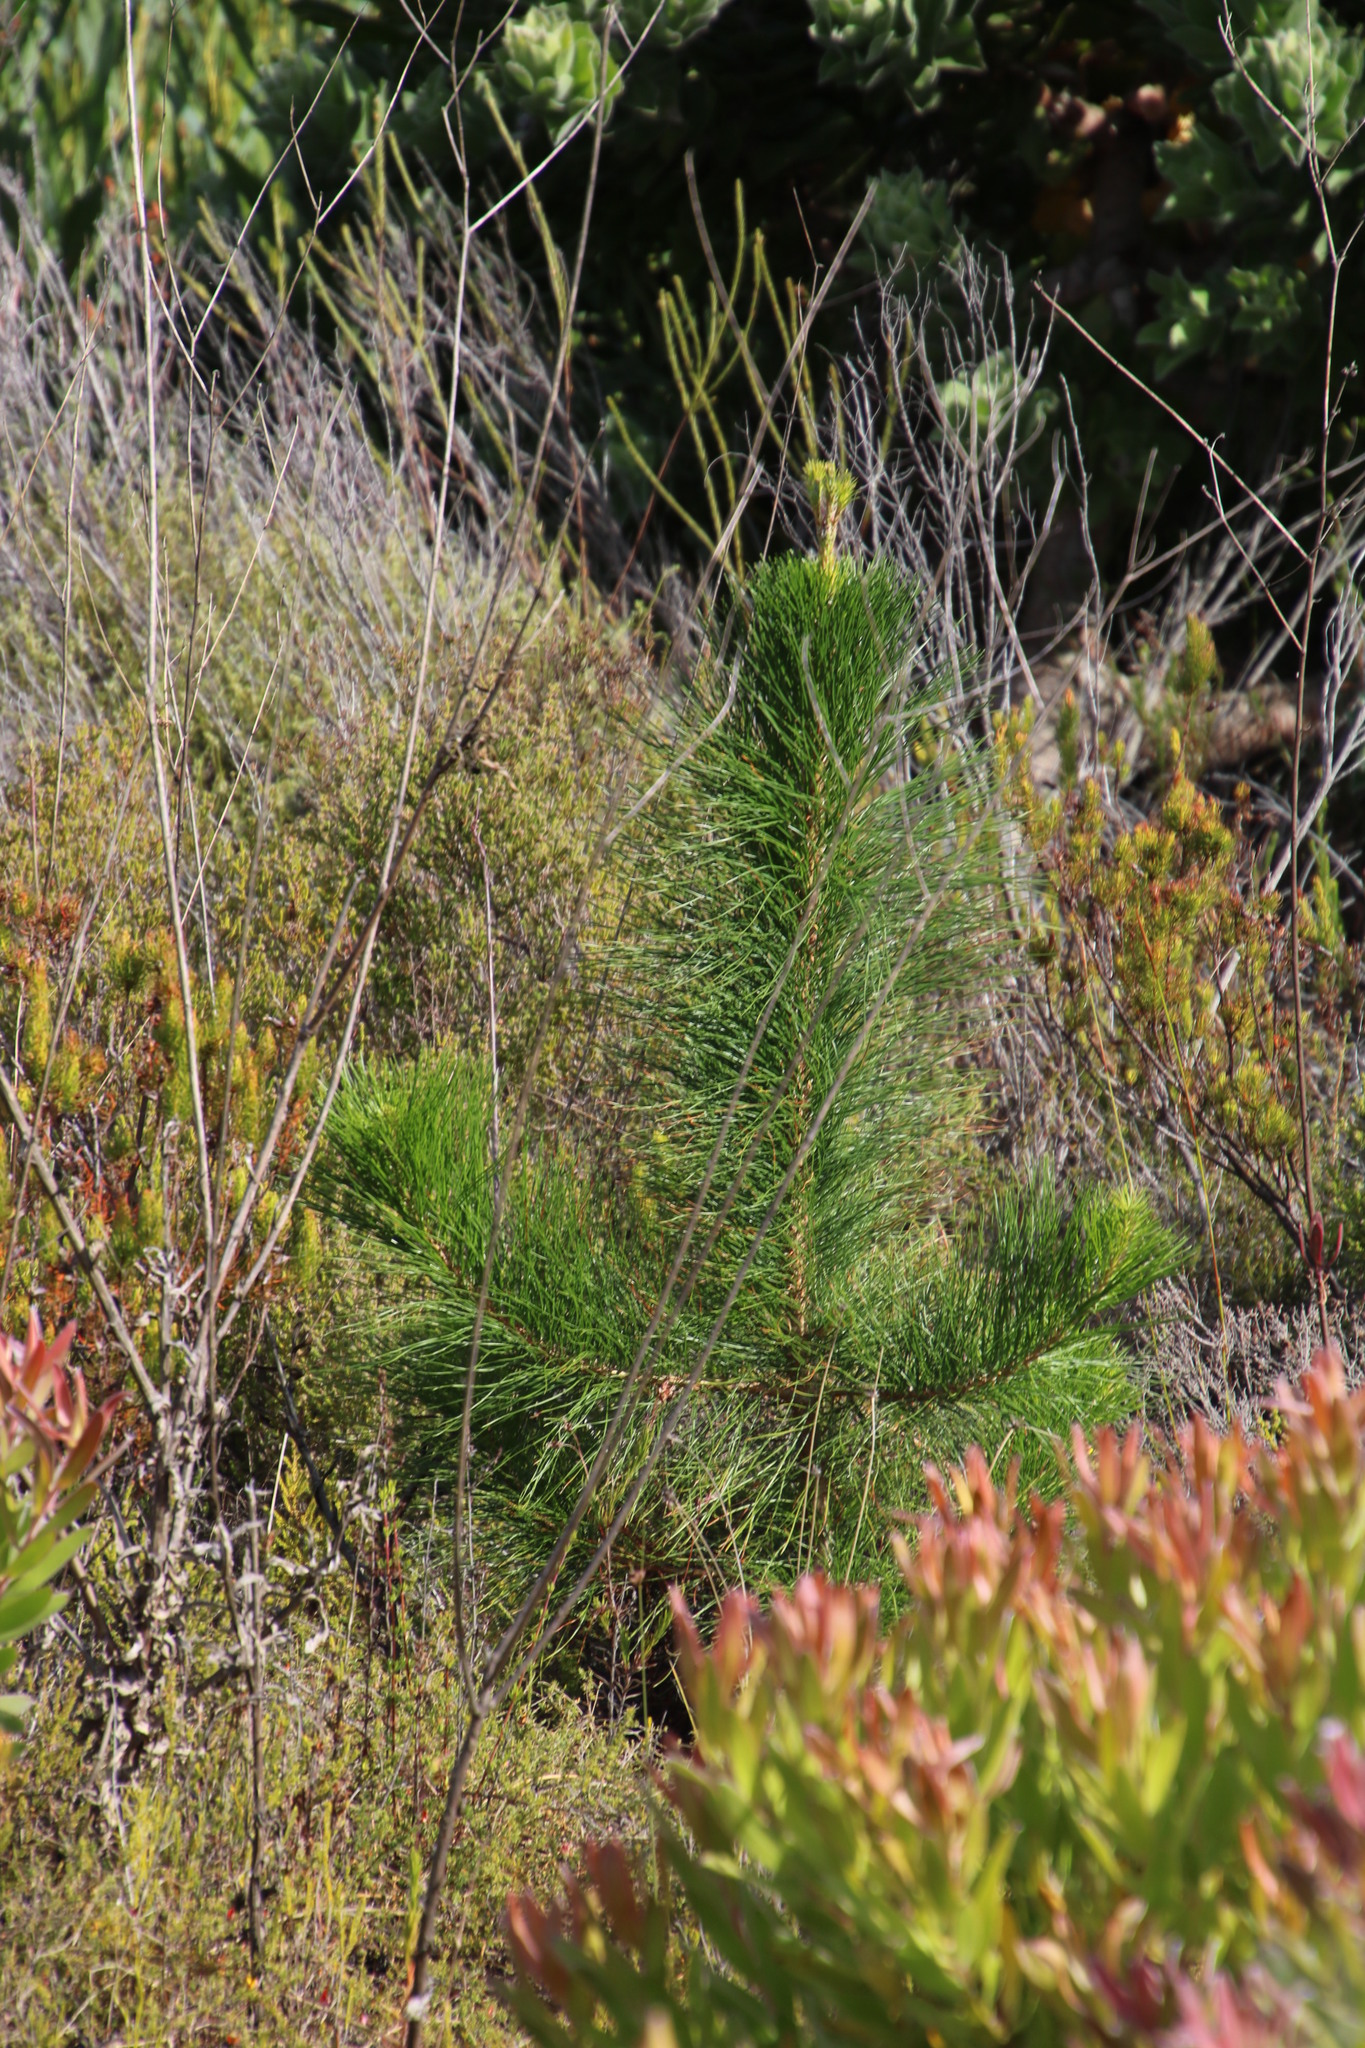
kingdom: Plantae
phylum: Tracheophyta
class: Pinopsida
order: Pinales
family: Pinaceae
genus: Pinus
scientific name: Pinus radiata
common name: Monterey pine
